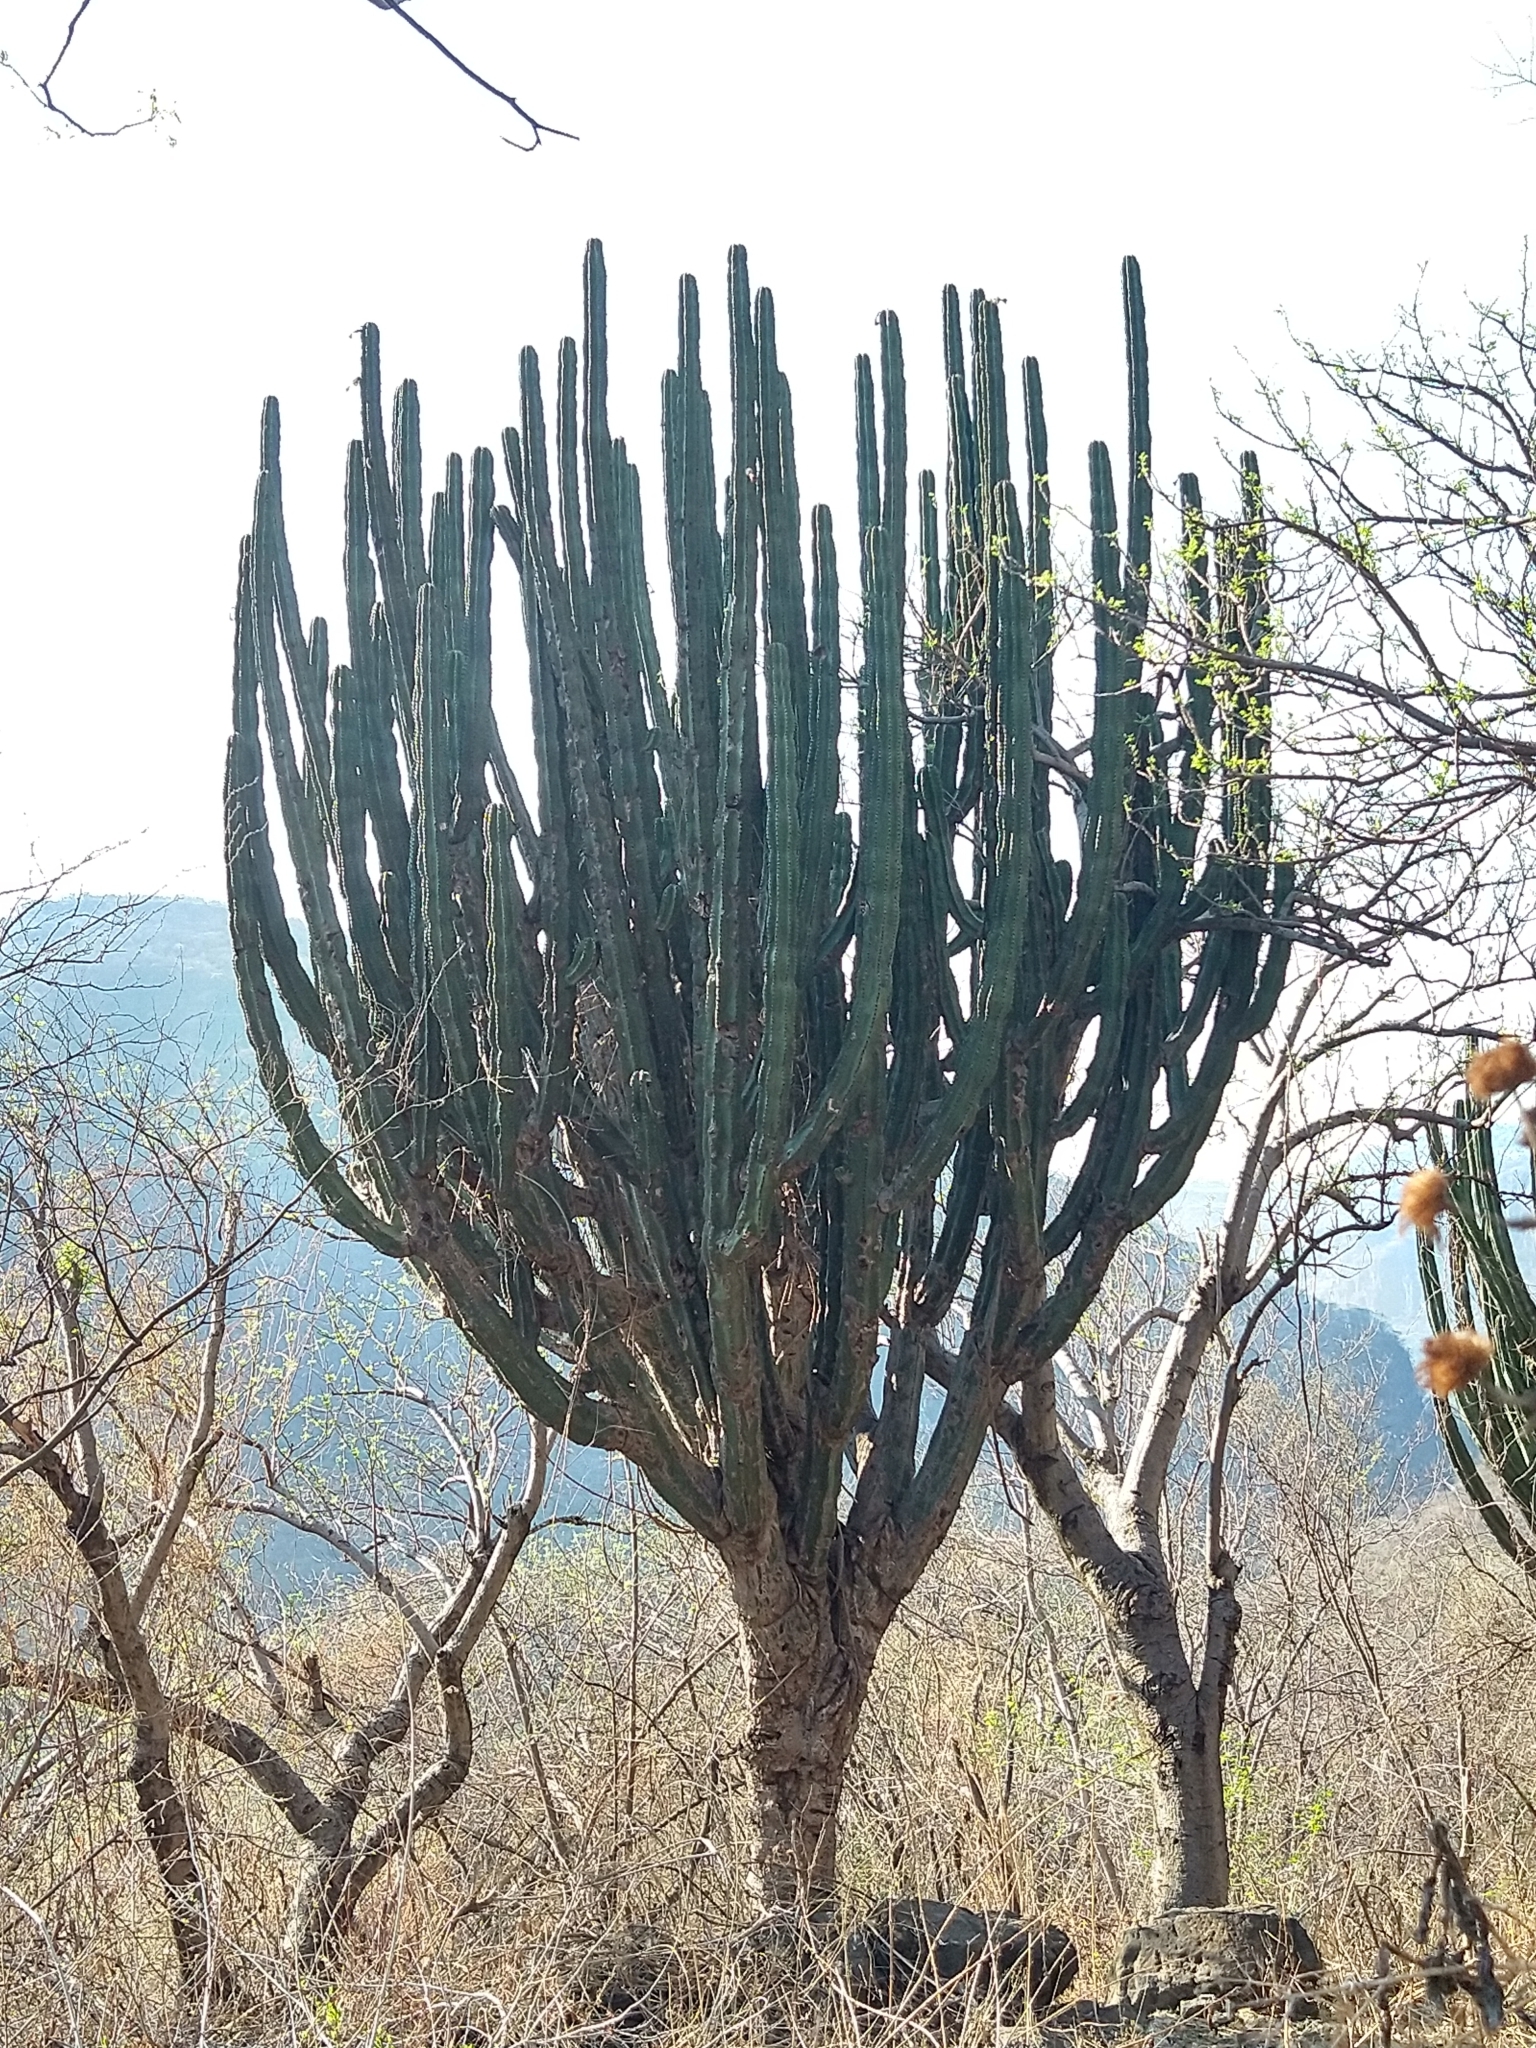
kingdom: Plantae
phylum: Tracheophyta
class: Magnoliopsida
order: Caryophyllales
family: Cactaceae
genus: Stenocereus
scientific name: Stenocereus queretaroensis
